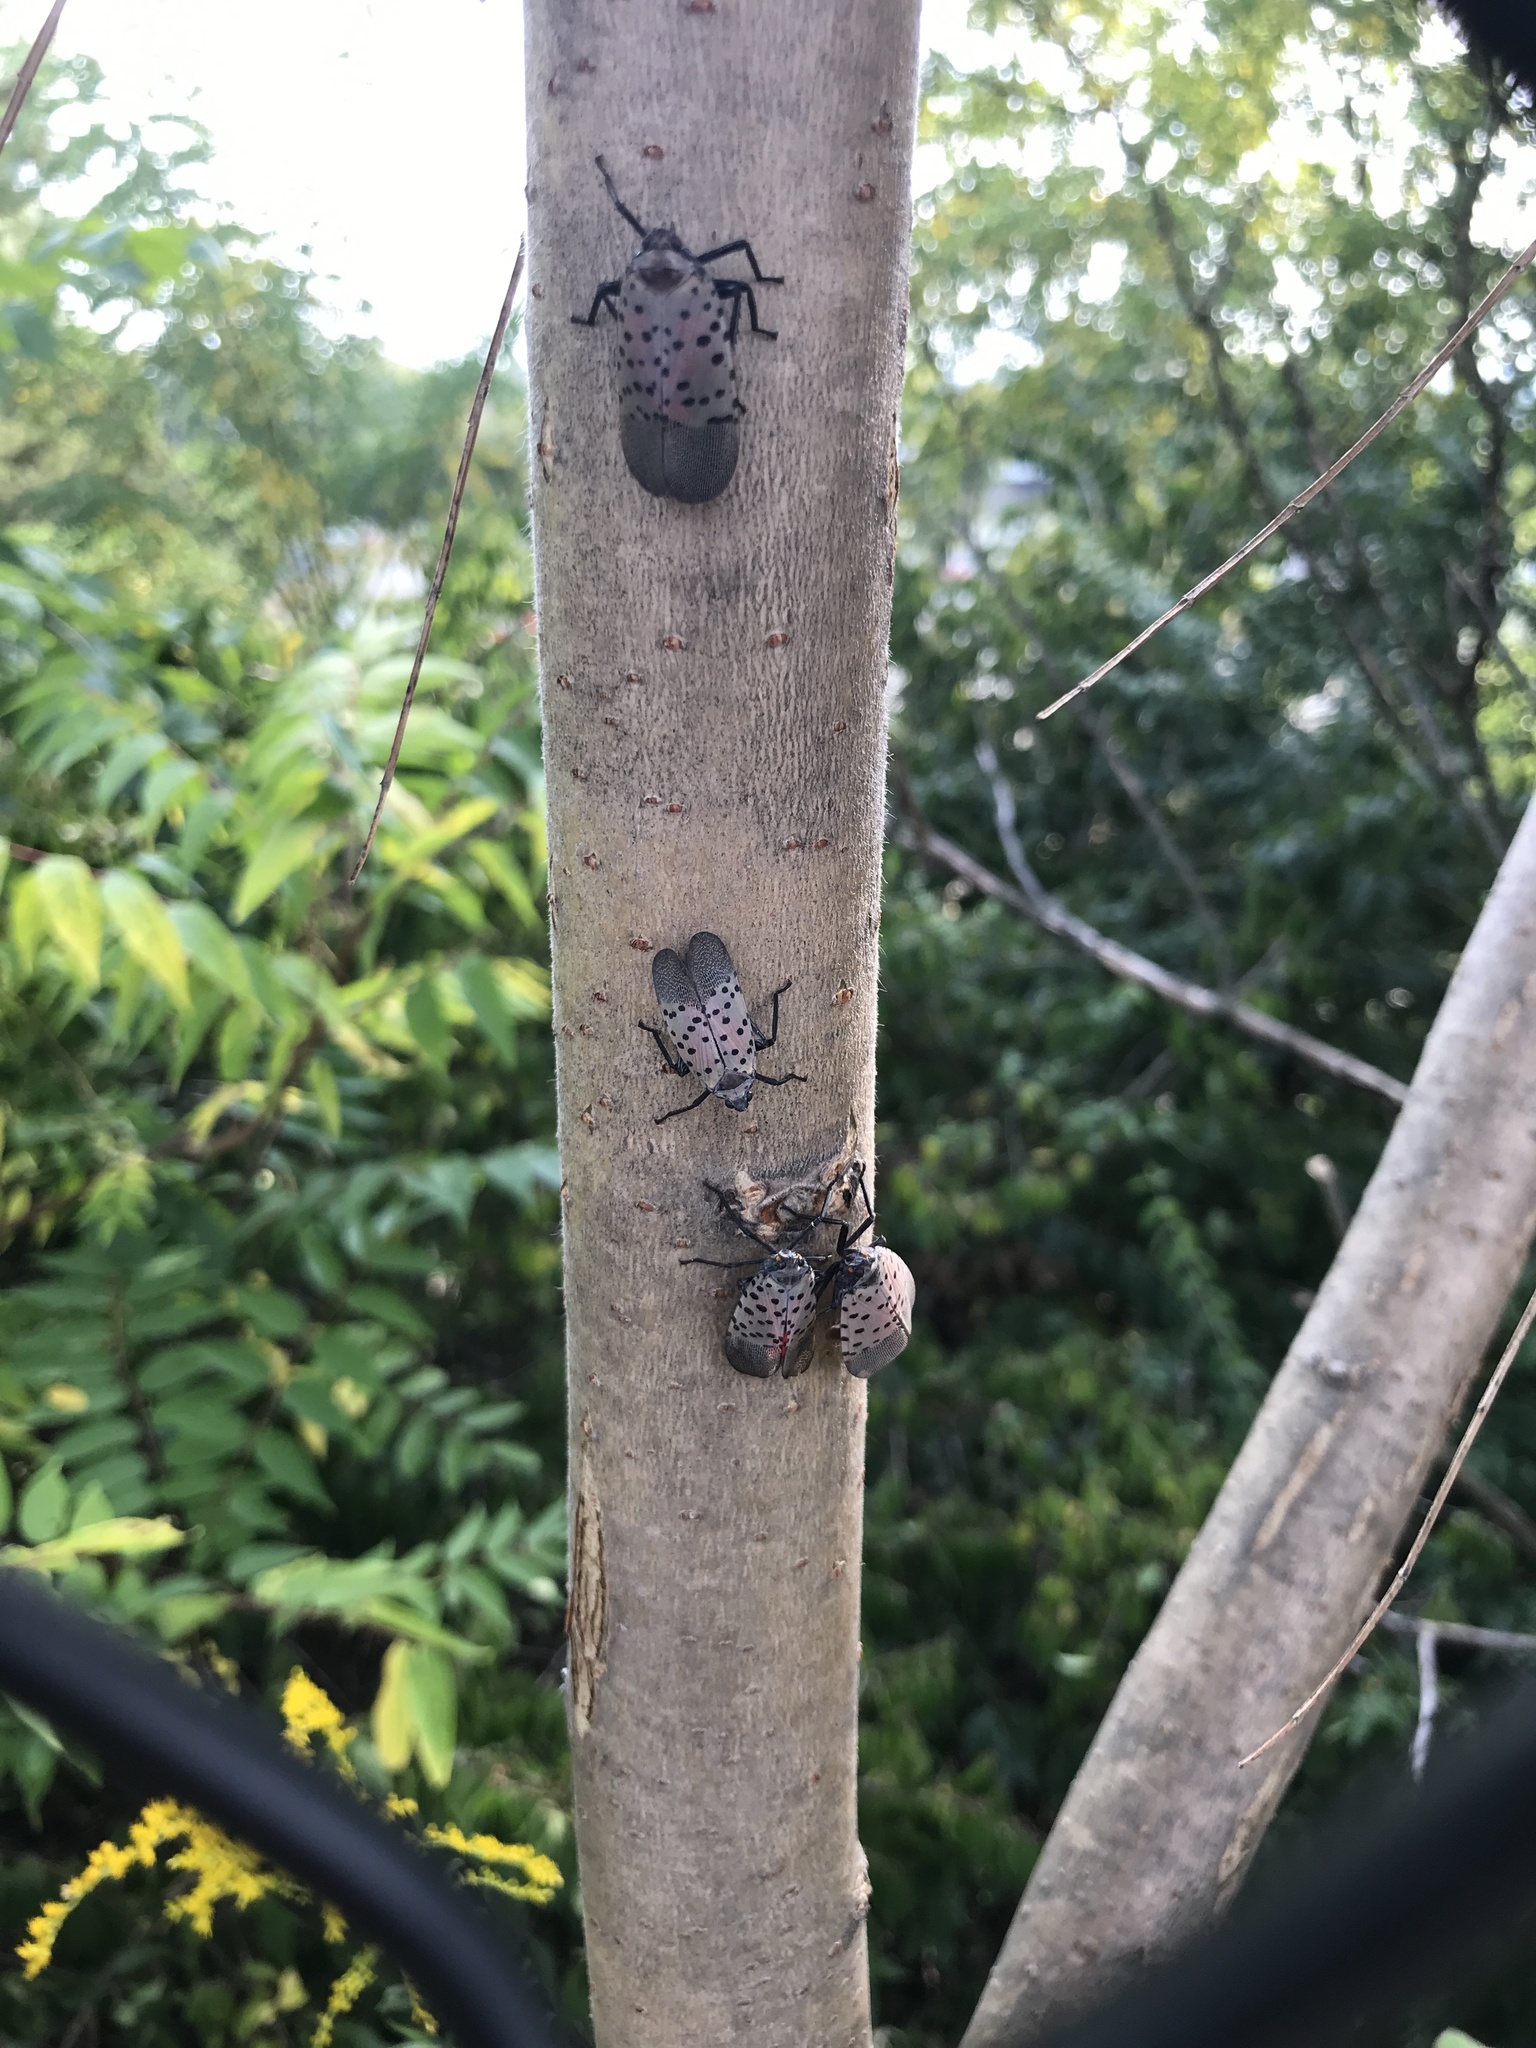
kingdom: Animalia
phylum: Arthropoda
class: Insecta
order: Hemiptera
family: Fulgoridae
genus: Lycorma
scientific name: Lycorma delicatula
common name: Spotted lanternfly
